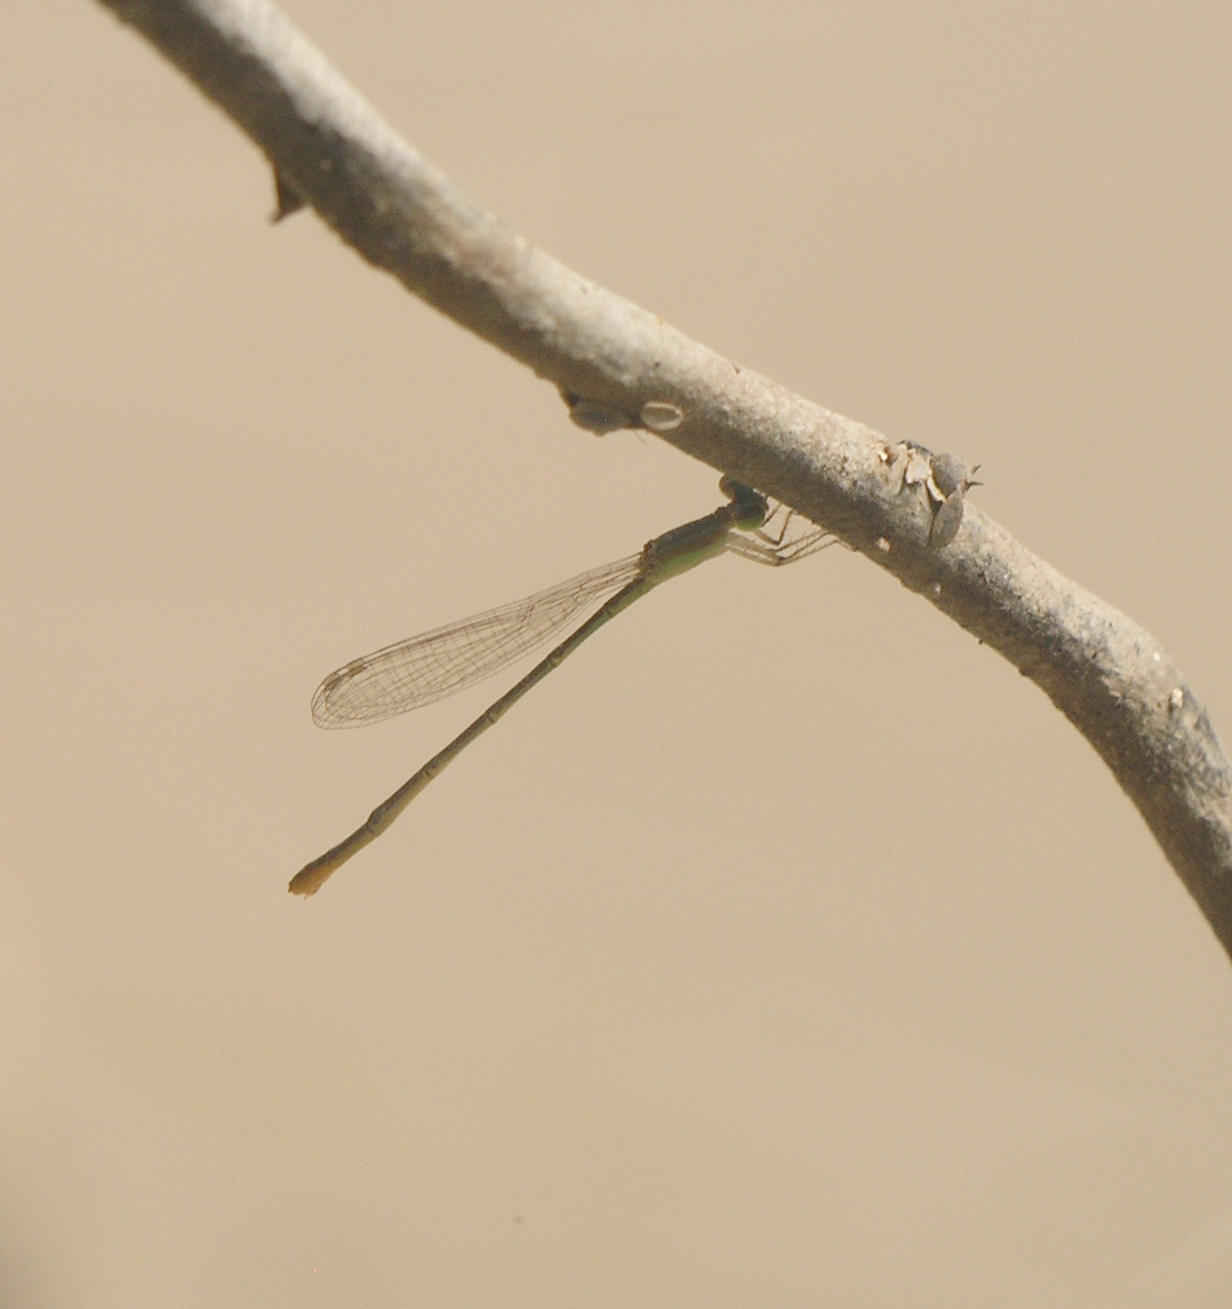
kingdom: Animalia
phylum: Arthropoda
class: Insecta
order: Odonata
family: Coenagrionidae
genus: Agriocnemis
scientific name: Agriocnemis pygmaea
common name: Pygmy wisp
